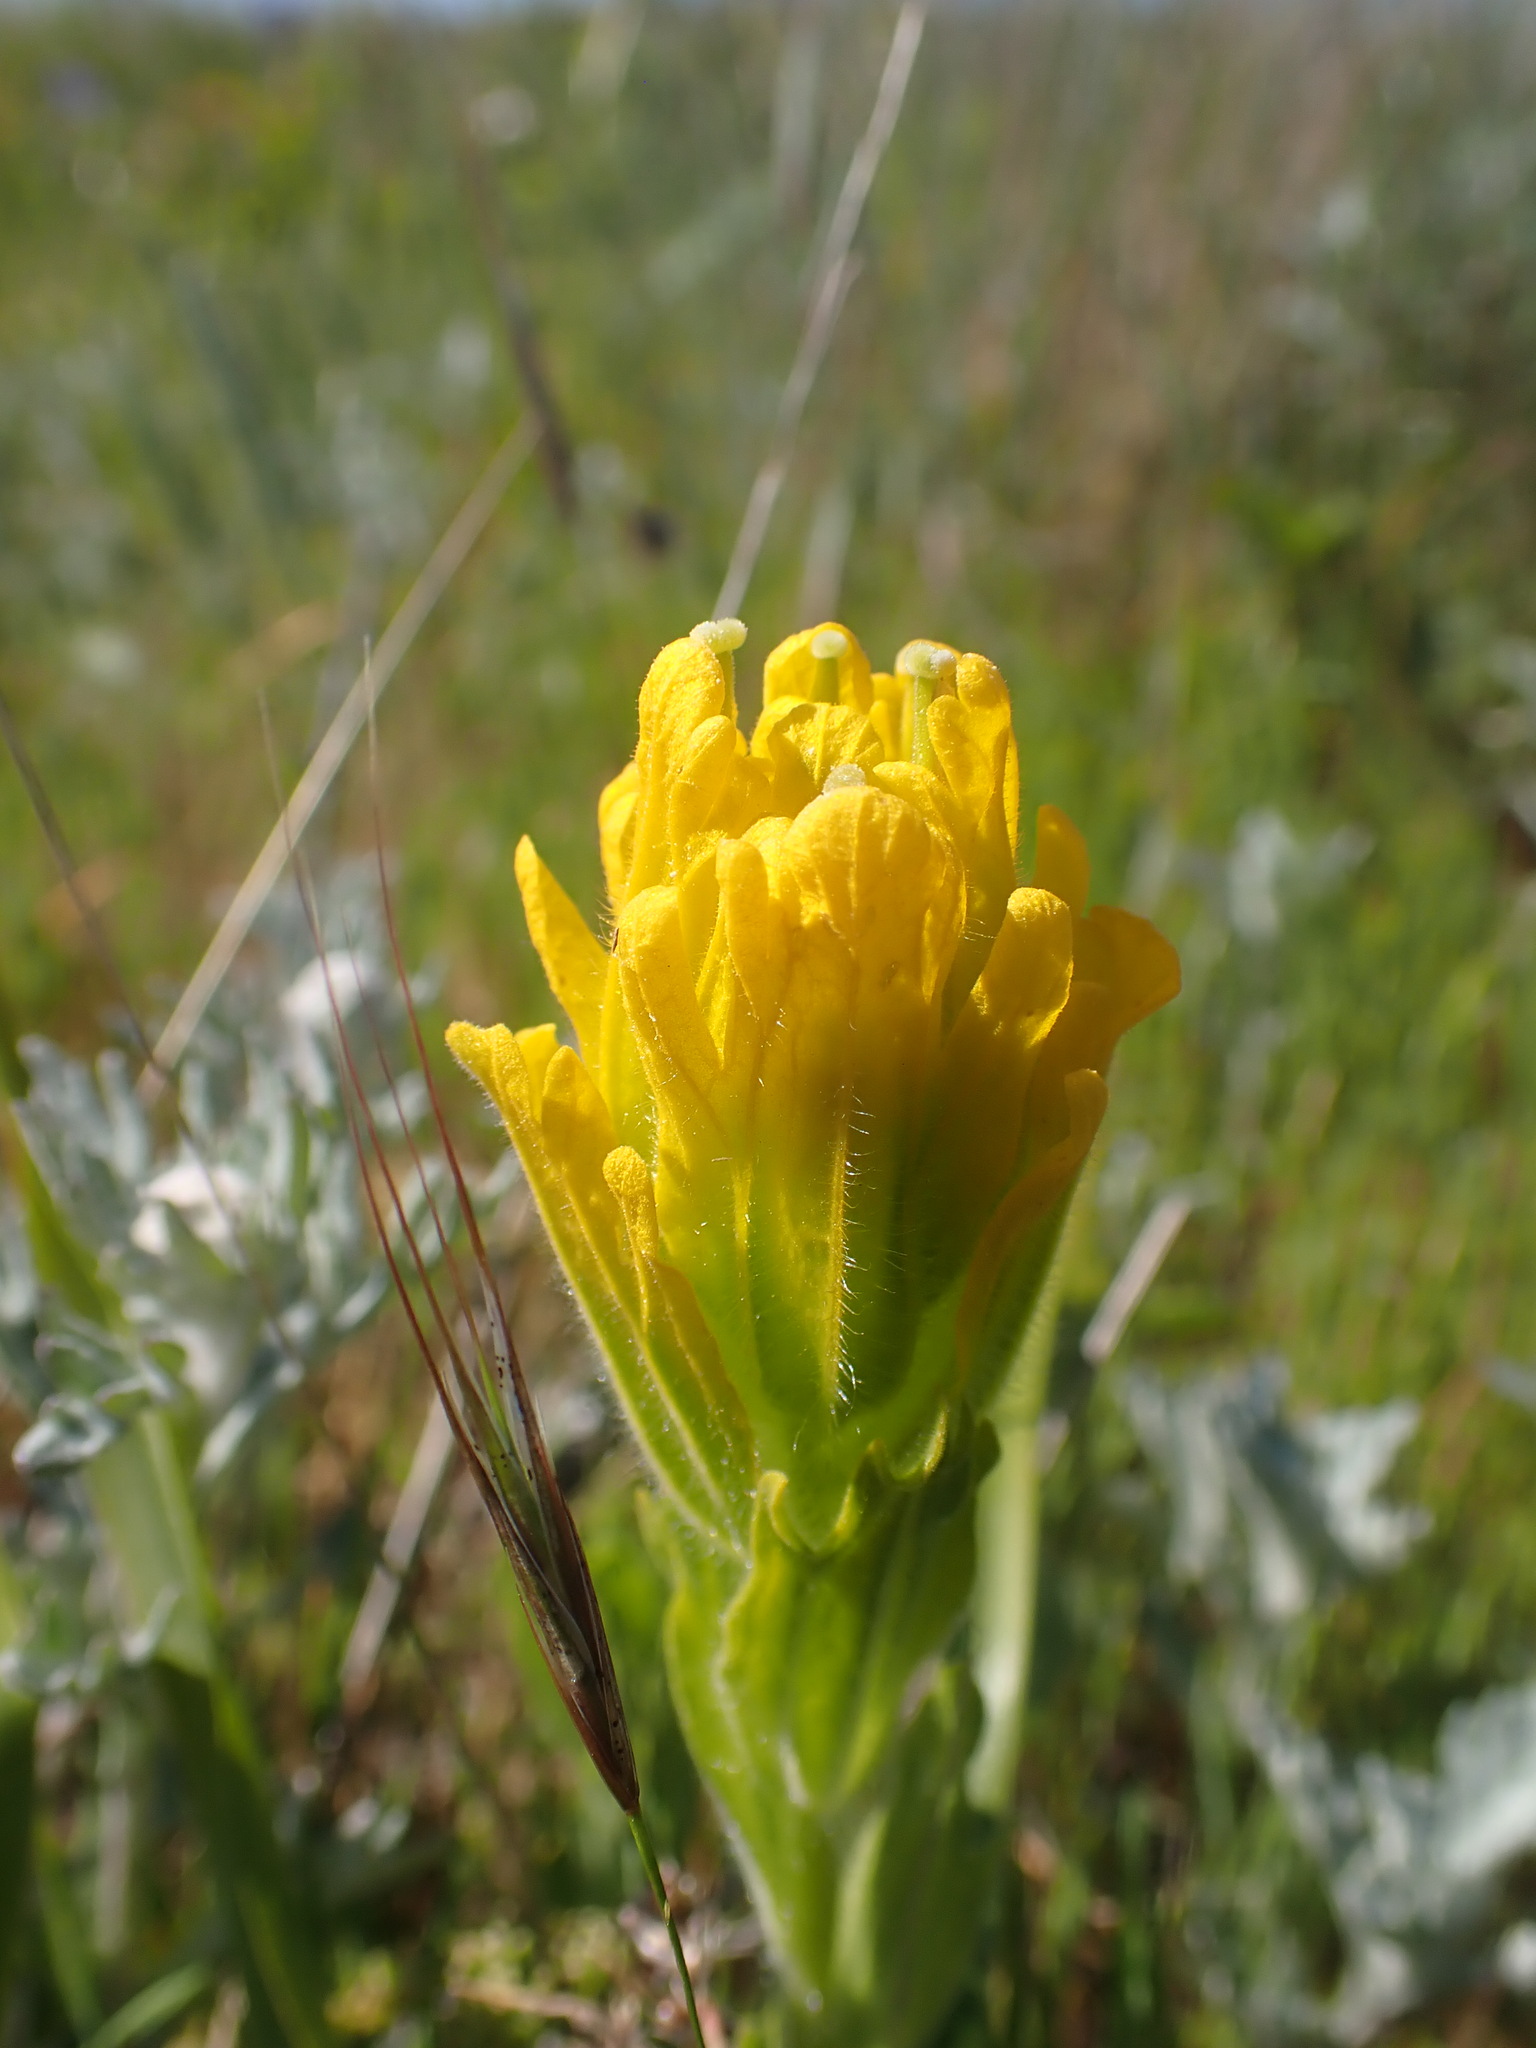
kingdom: Plantae
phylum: Tracheophyta
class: Magnoliopsida
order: Lamiales
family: Orobanchaceae
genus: Castilleja
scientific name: Castilleja levisecta
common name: Golden paintbrush
